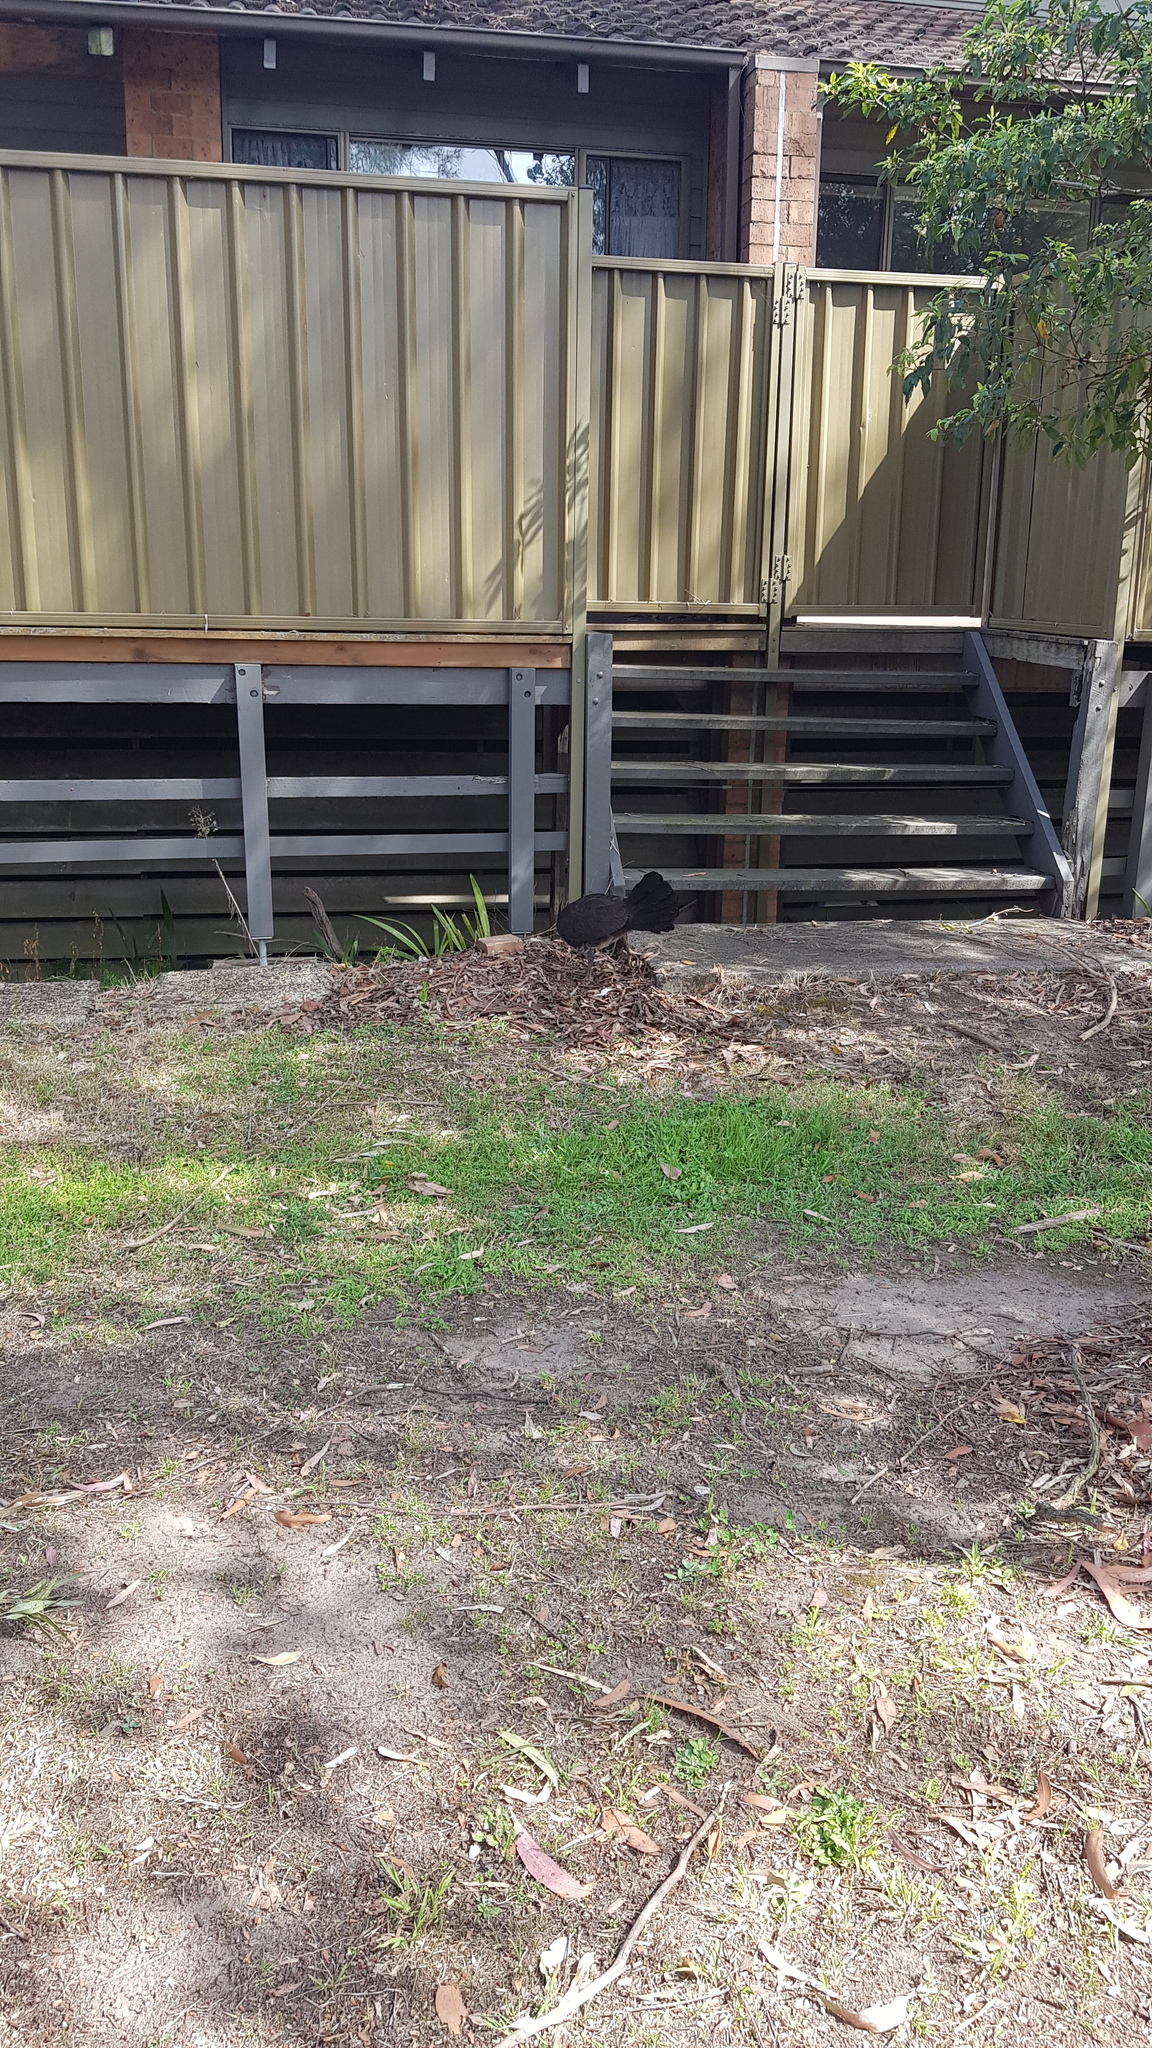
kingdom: Animalia
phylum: Chordata
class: Aves
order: Galliformes
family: Megapodiidae
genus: Alectura
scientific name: Alectura lathami
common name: Australian brushturkey
